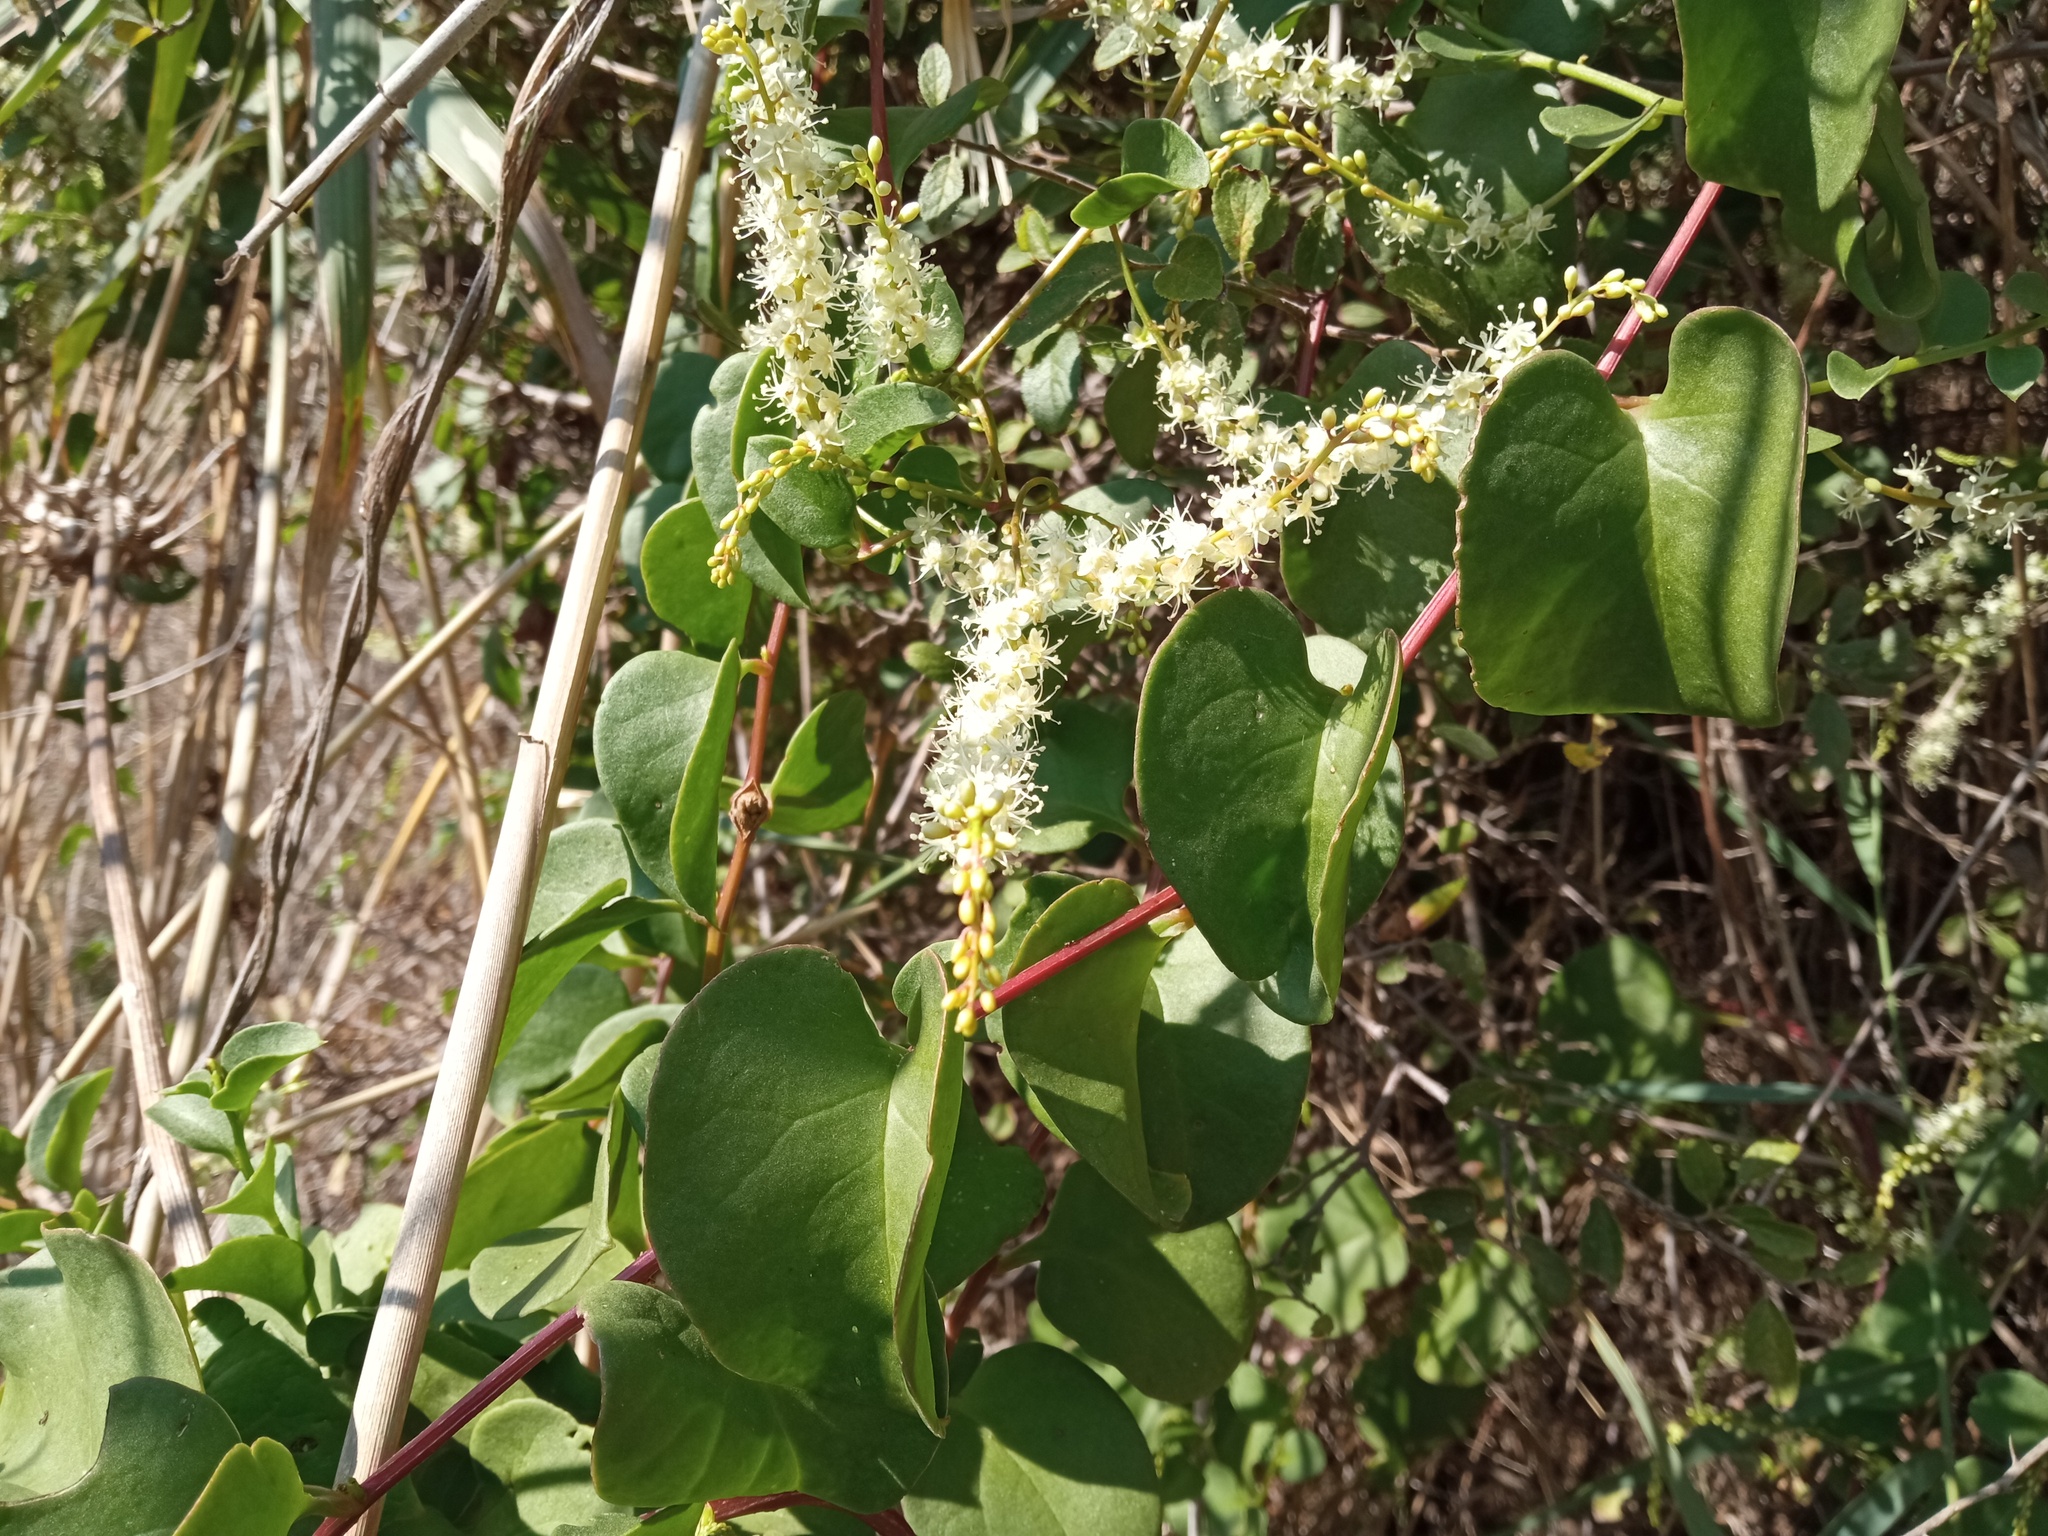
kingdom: Plantae
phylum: Tracheophyta
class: Magnoliopsida
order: Caryophyllales
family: Basellaceae
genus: Anredera
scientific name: Anredera cordifolia
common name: Heartleaf madeiravine
